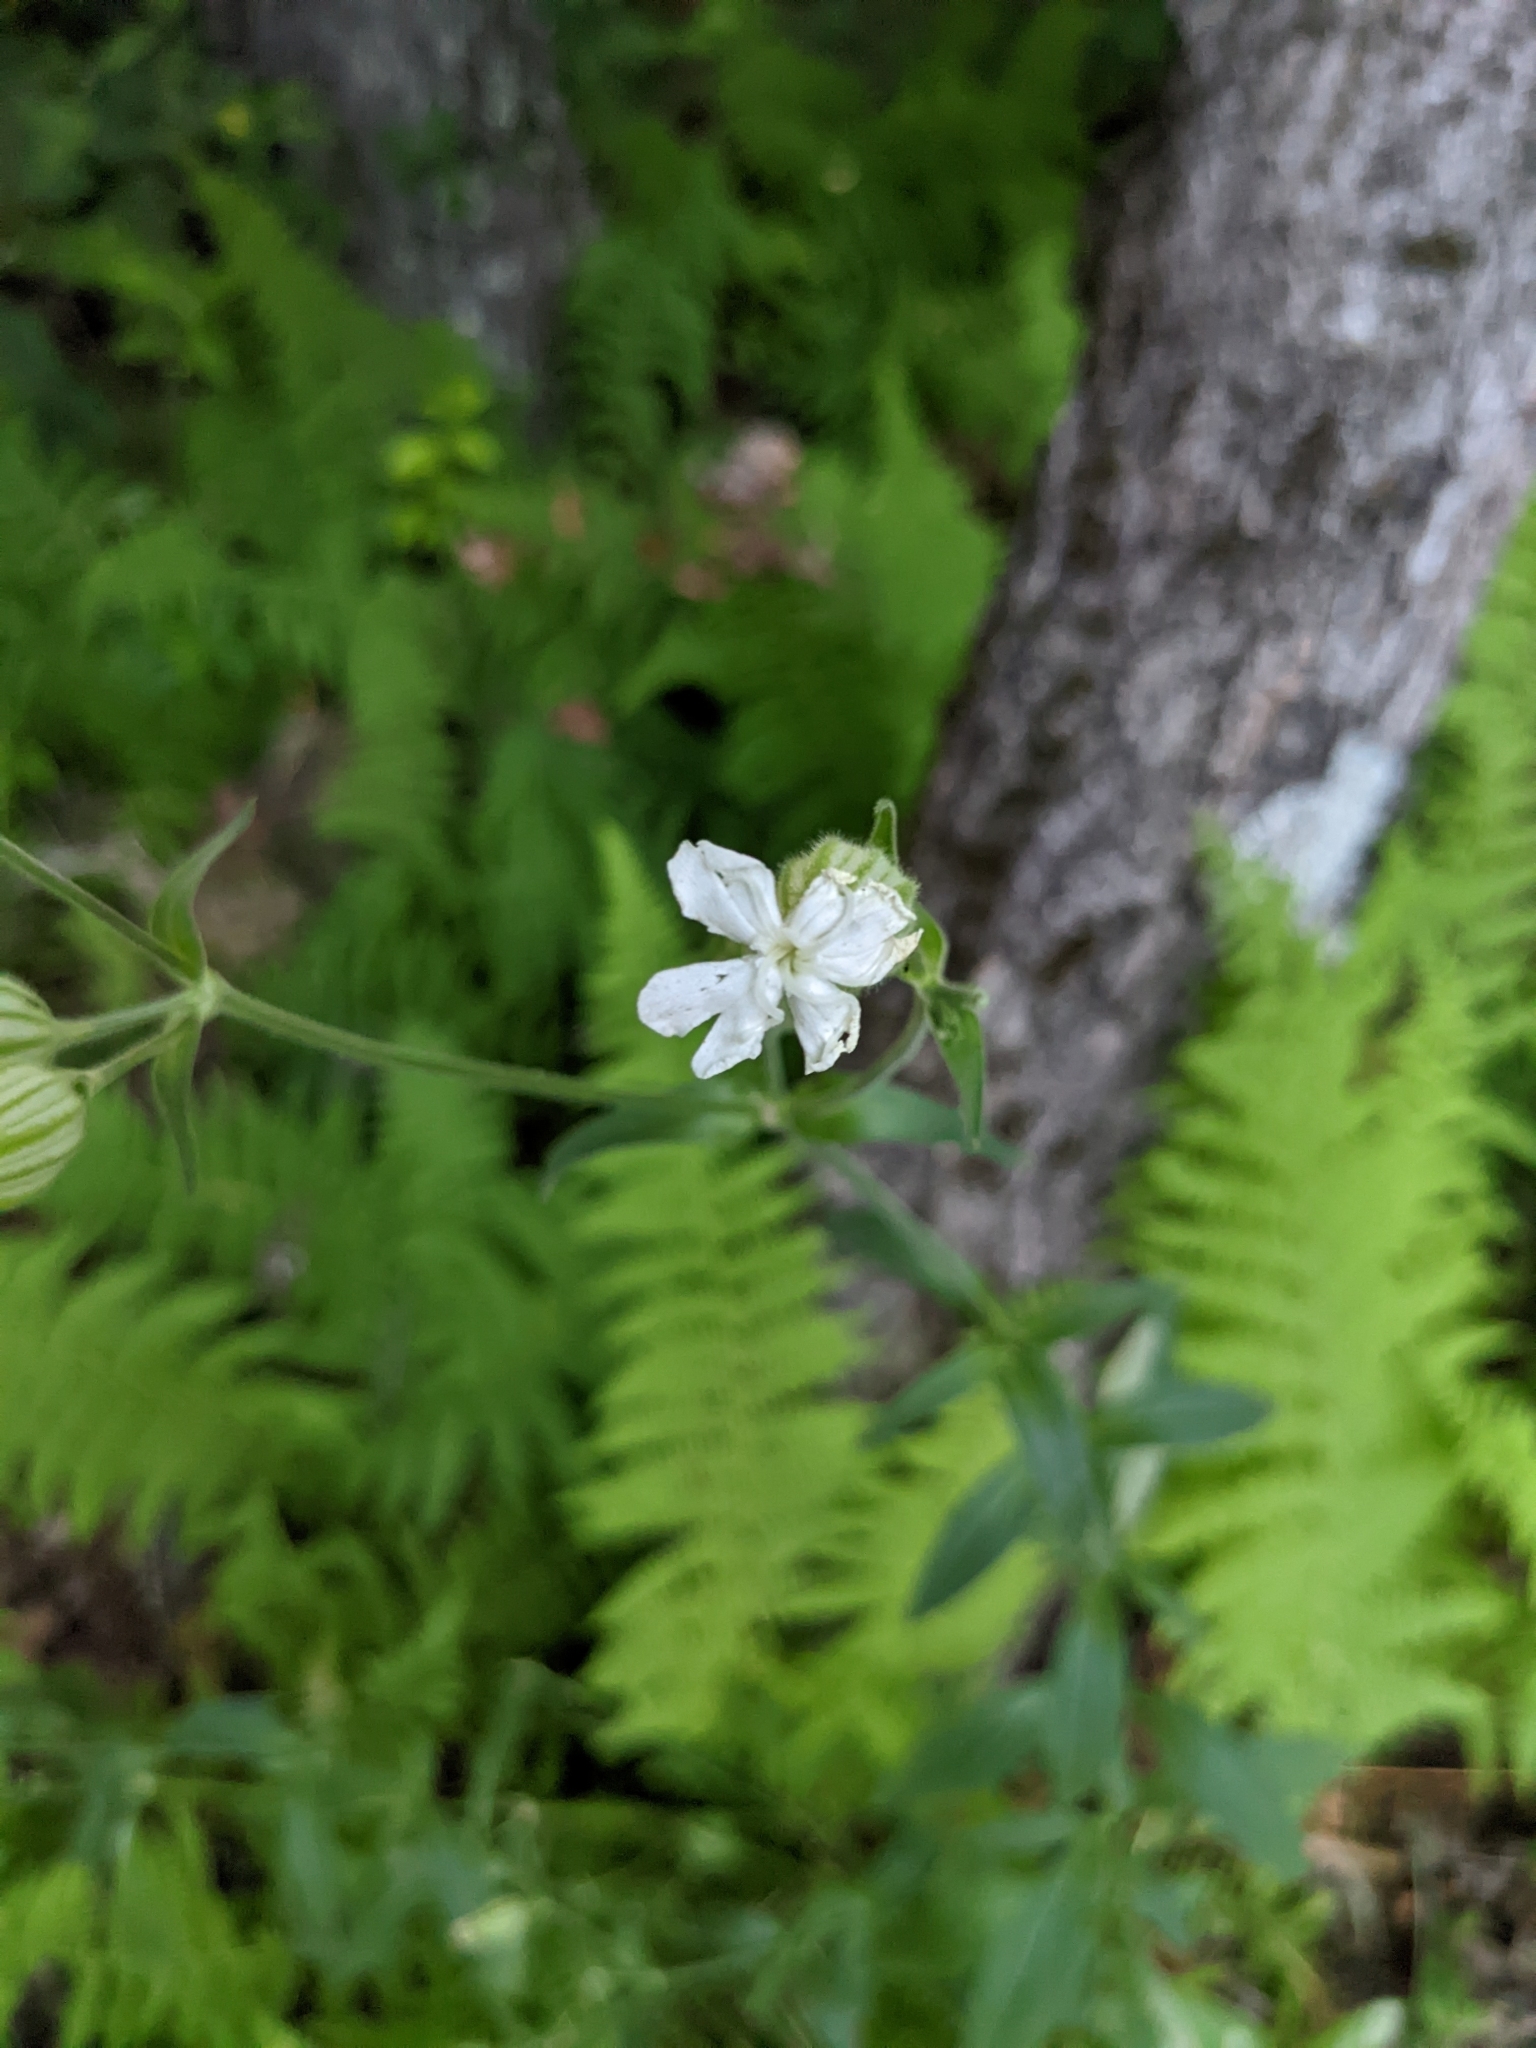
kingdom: Plantae
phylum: Tracheophyta
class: Magnoliopsida
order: Caryophyllales
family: Caryophyllaceae
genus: Silene
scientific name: Silene latifolia
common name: White campion
